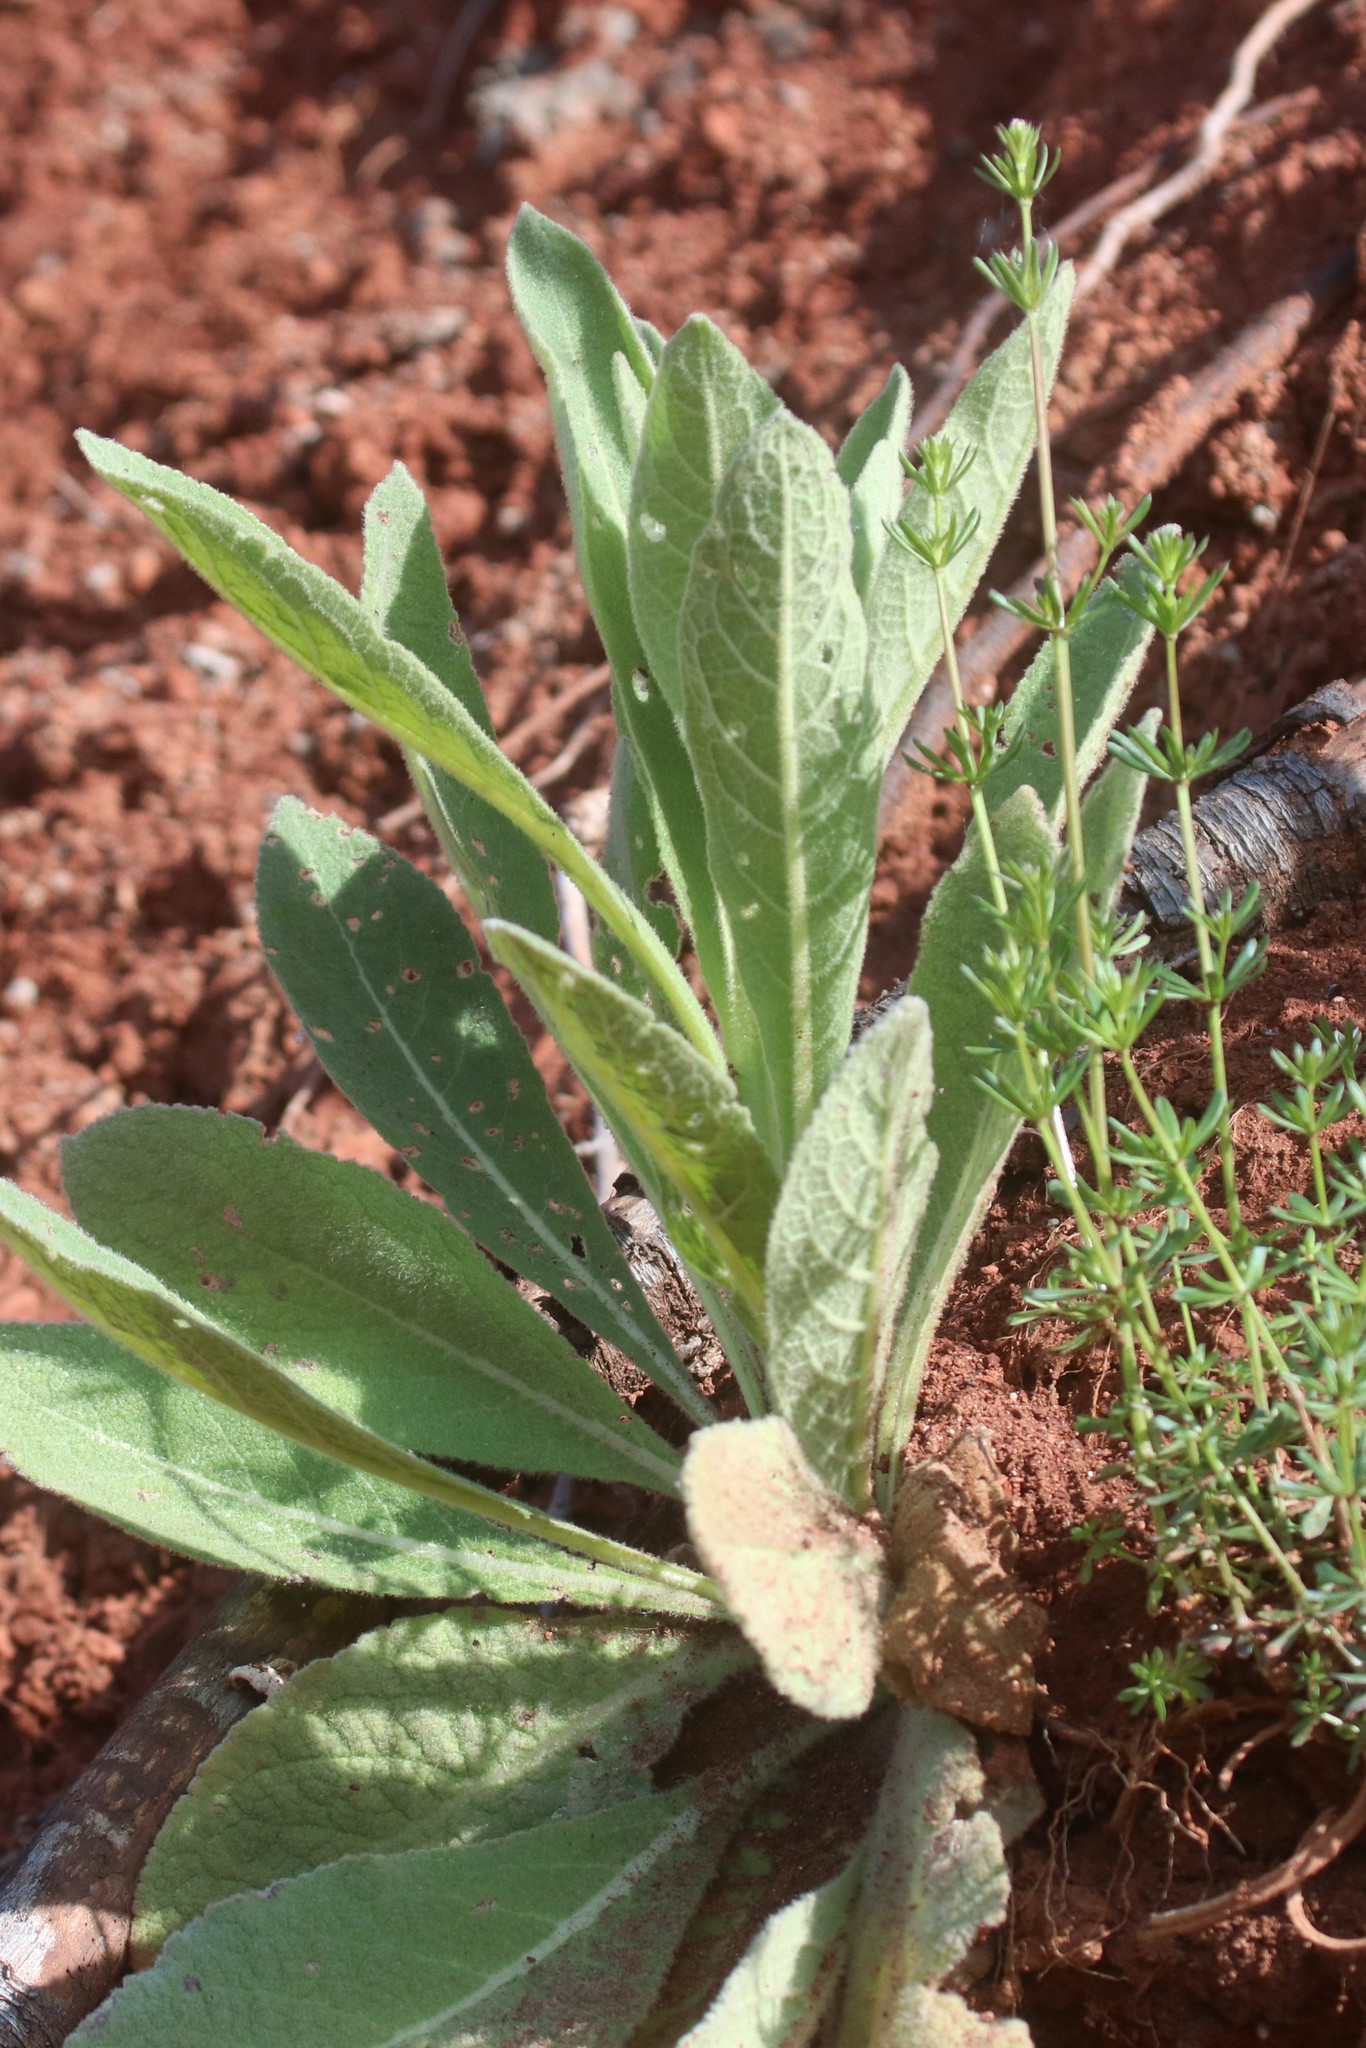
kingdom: Plantae
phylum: Tracheophyta
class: Magnoliopsida
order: Lamiales
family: Scrophulariaceae
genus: Verbascum
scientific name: Verbascum thapsus
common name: Common mullein
